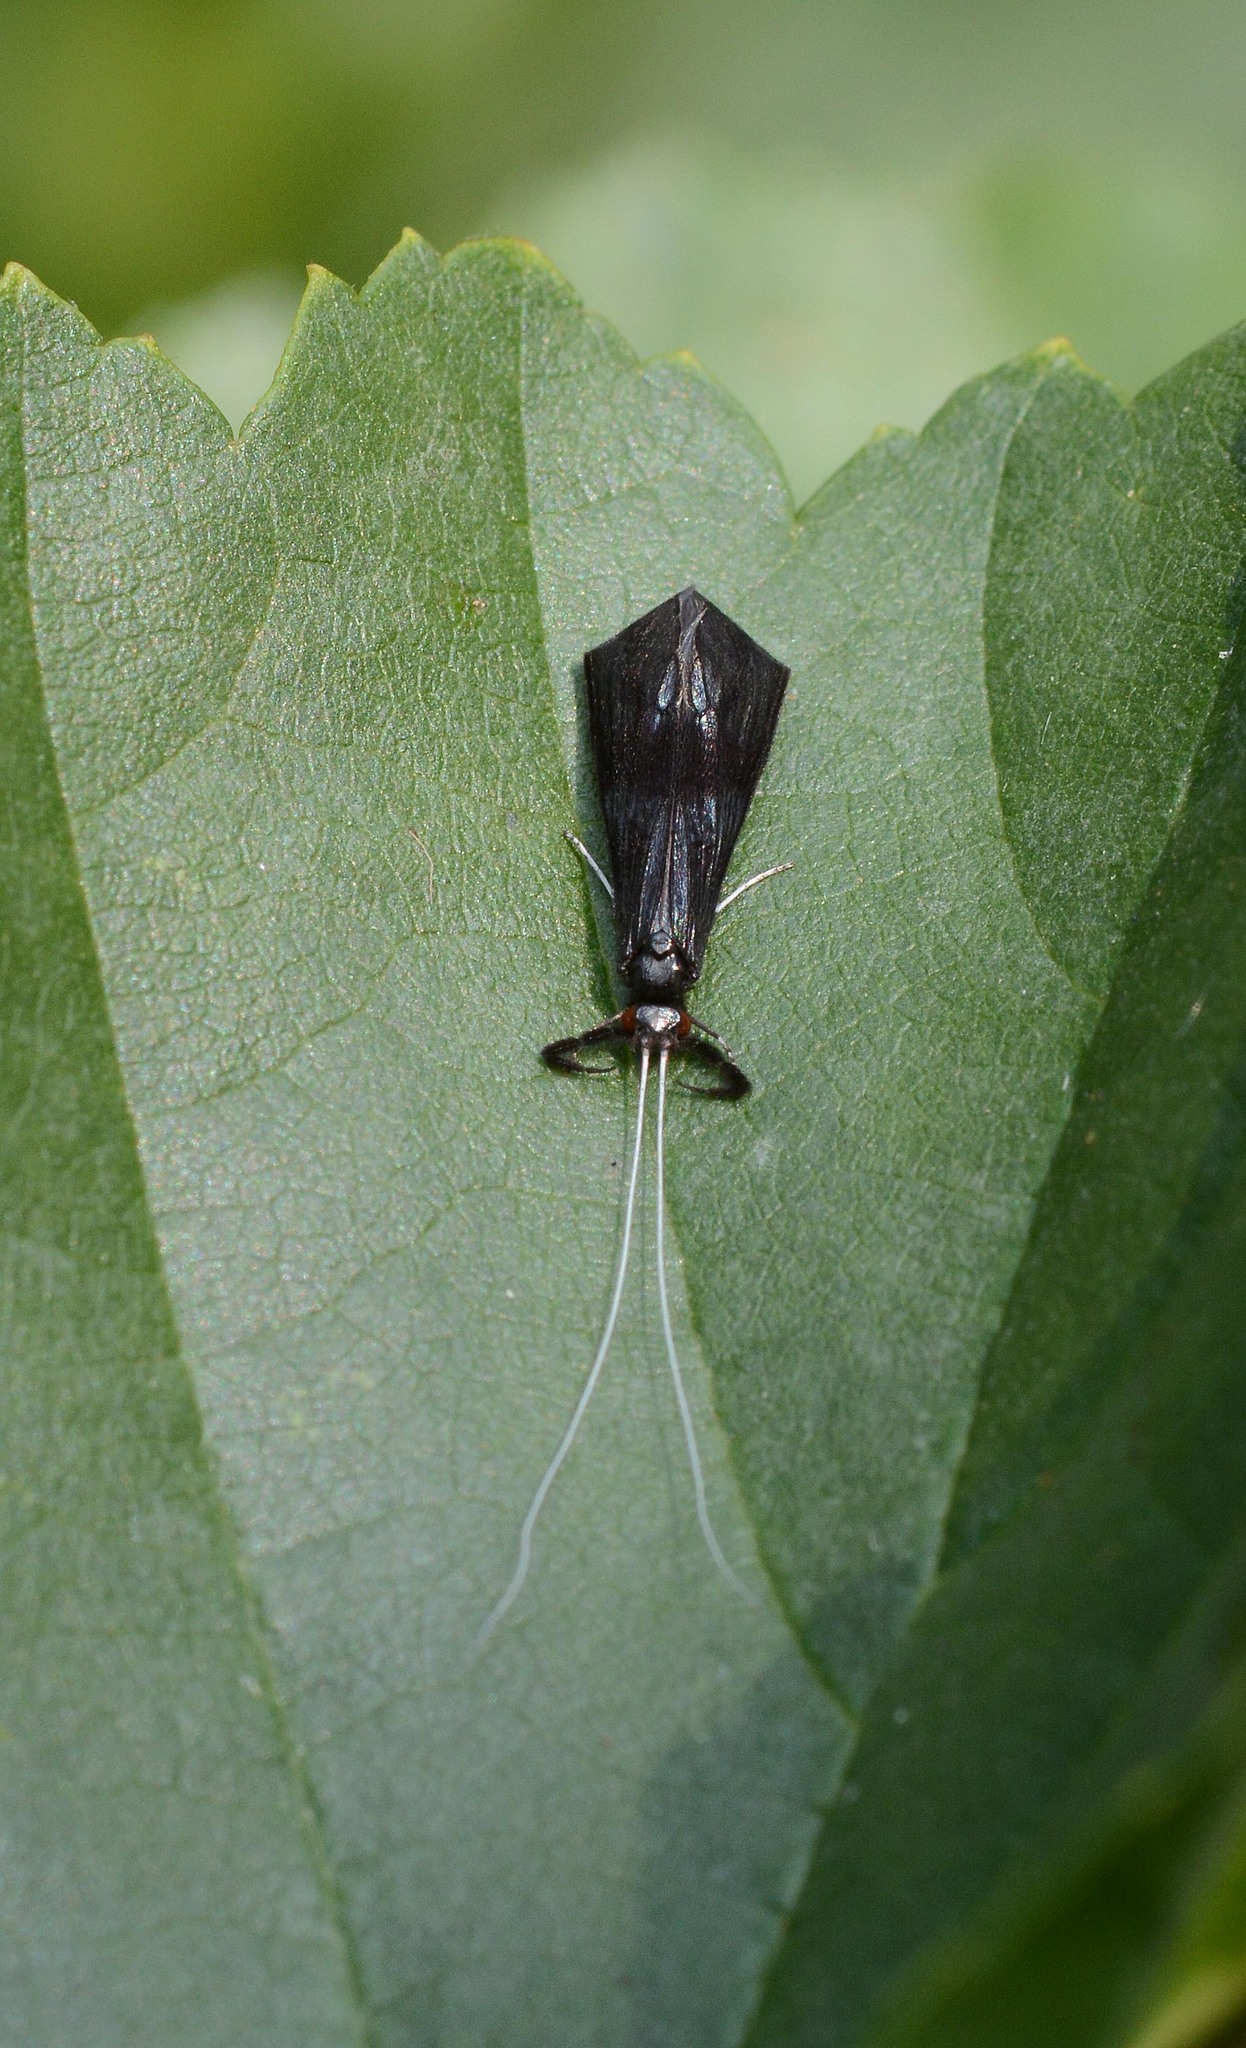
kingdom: Animalia
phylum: Arthropoda
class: Insecta
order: Trichoptera
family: Leptoceridae
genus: Mystacides
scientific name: Mystacides azureus
